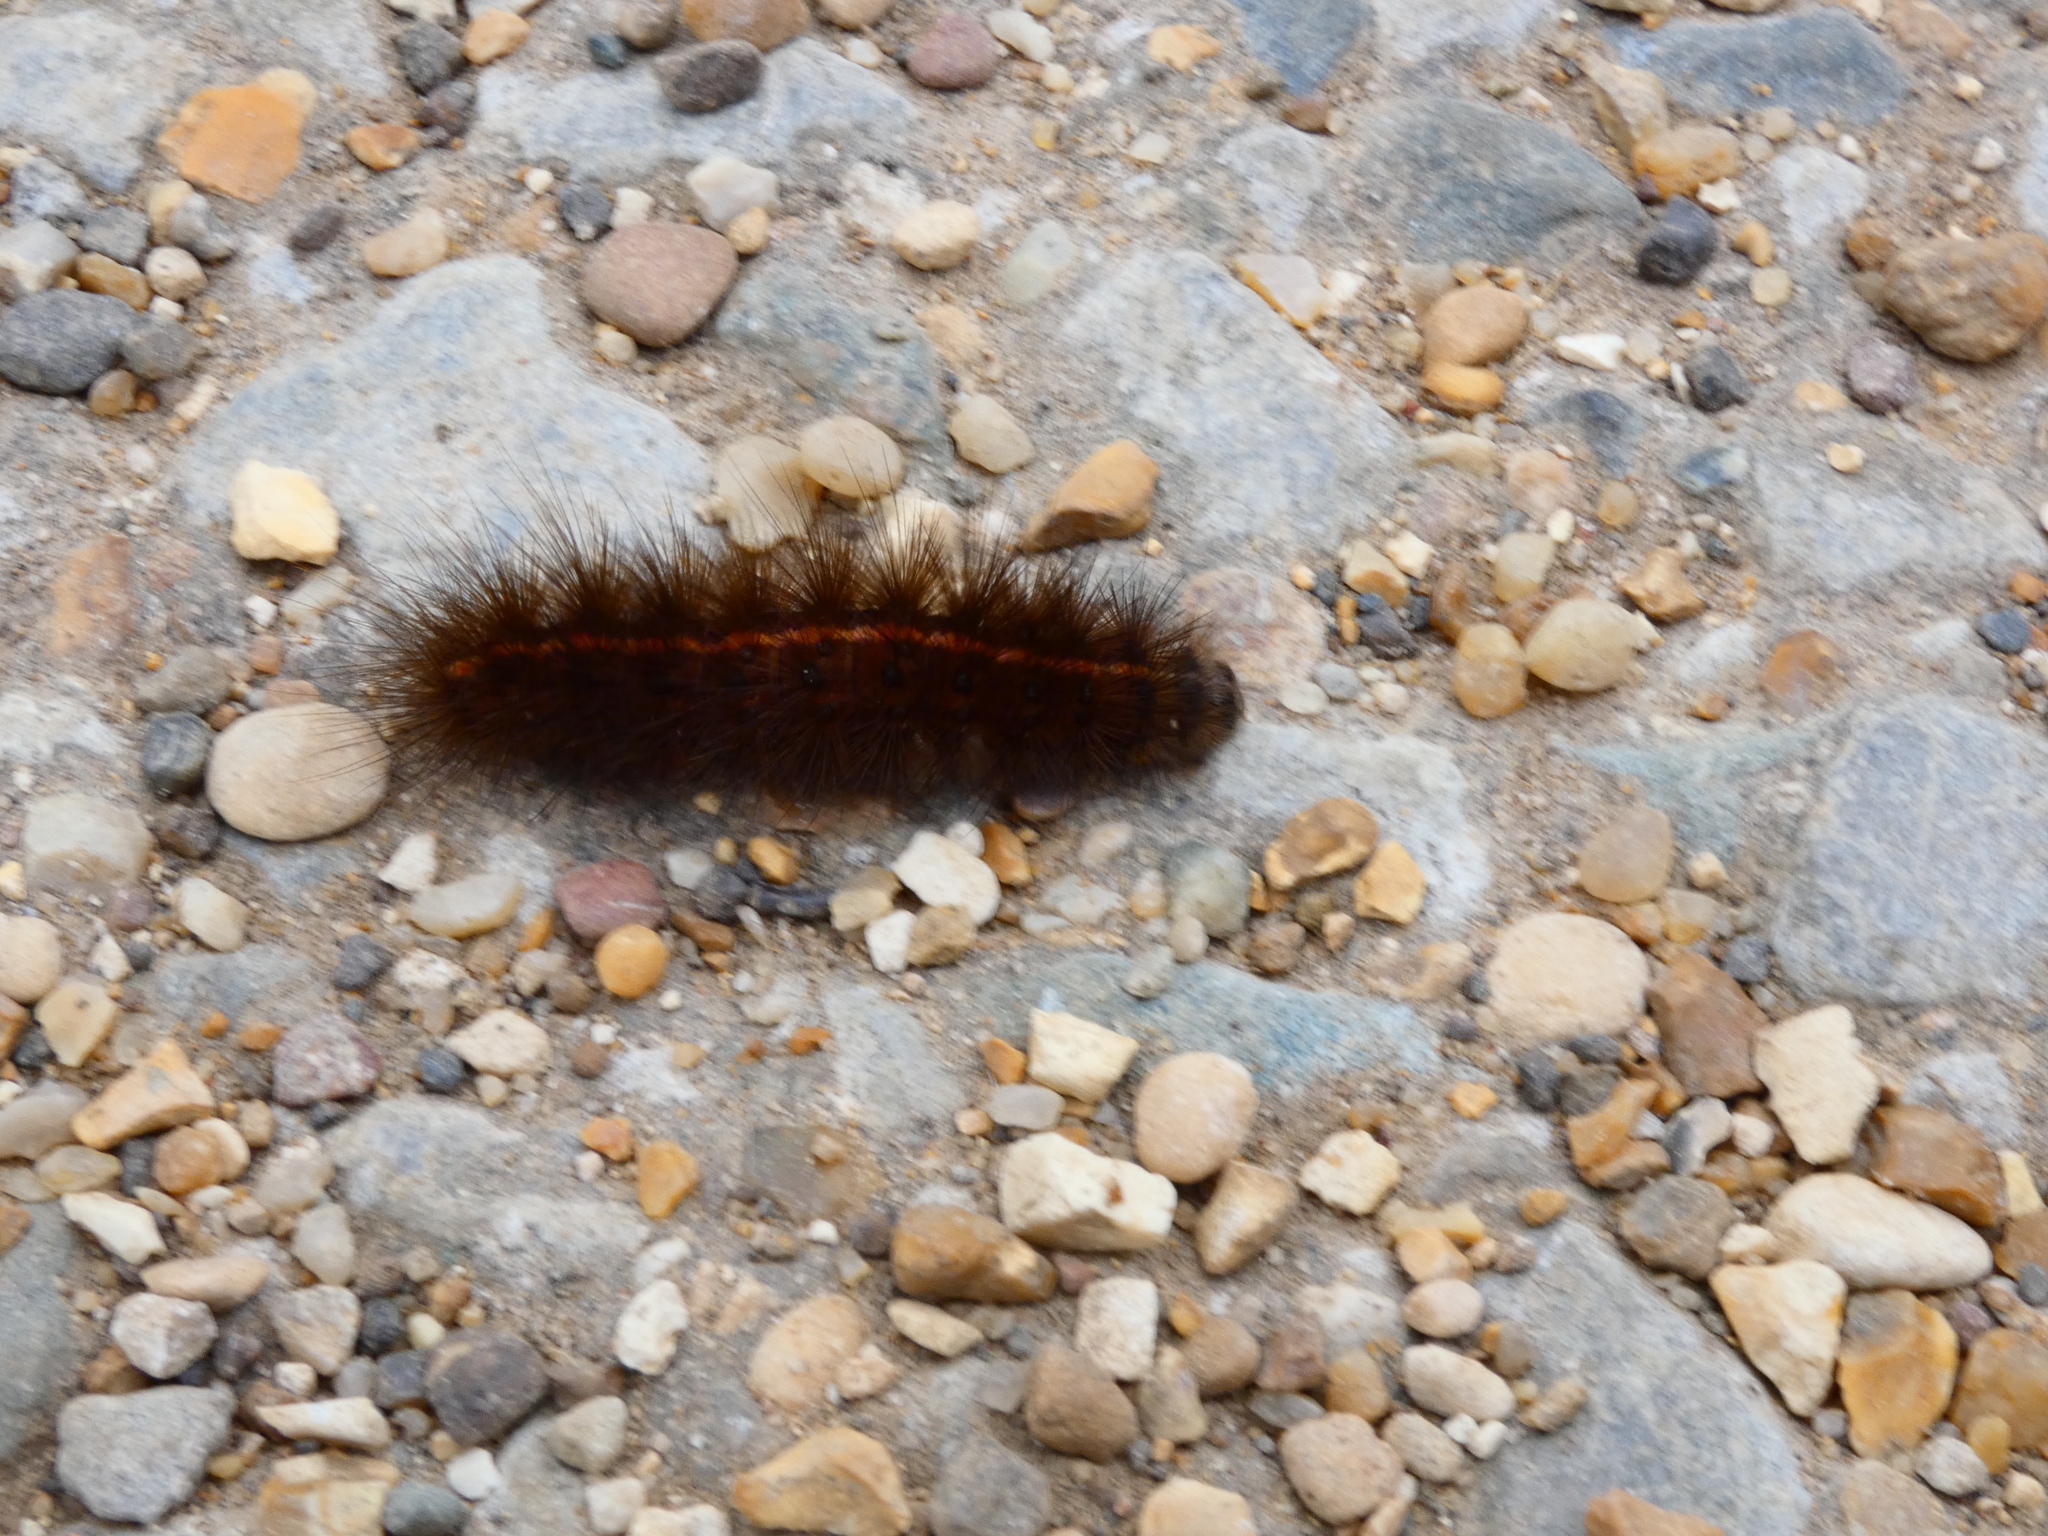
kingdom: Animalia
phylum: Arthropoda
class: Insecta
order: Lepidoptera
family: Erebidae
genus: Spilosoma
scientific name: Spilosoma lubricipeda
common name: White ermine
